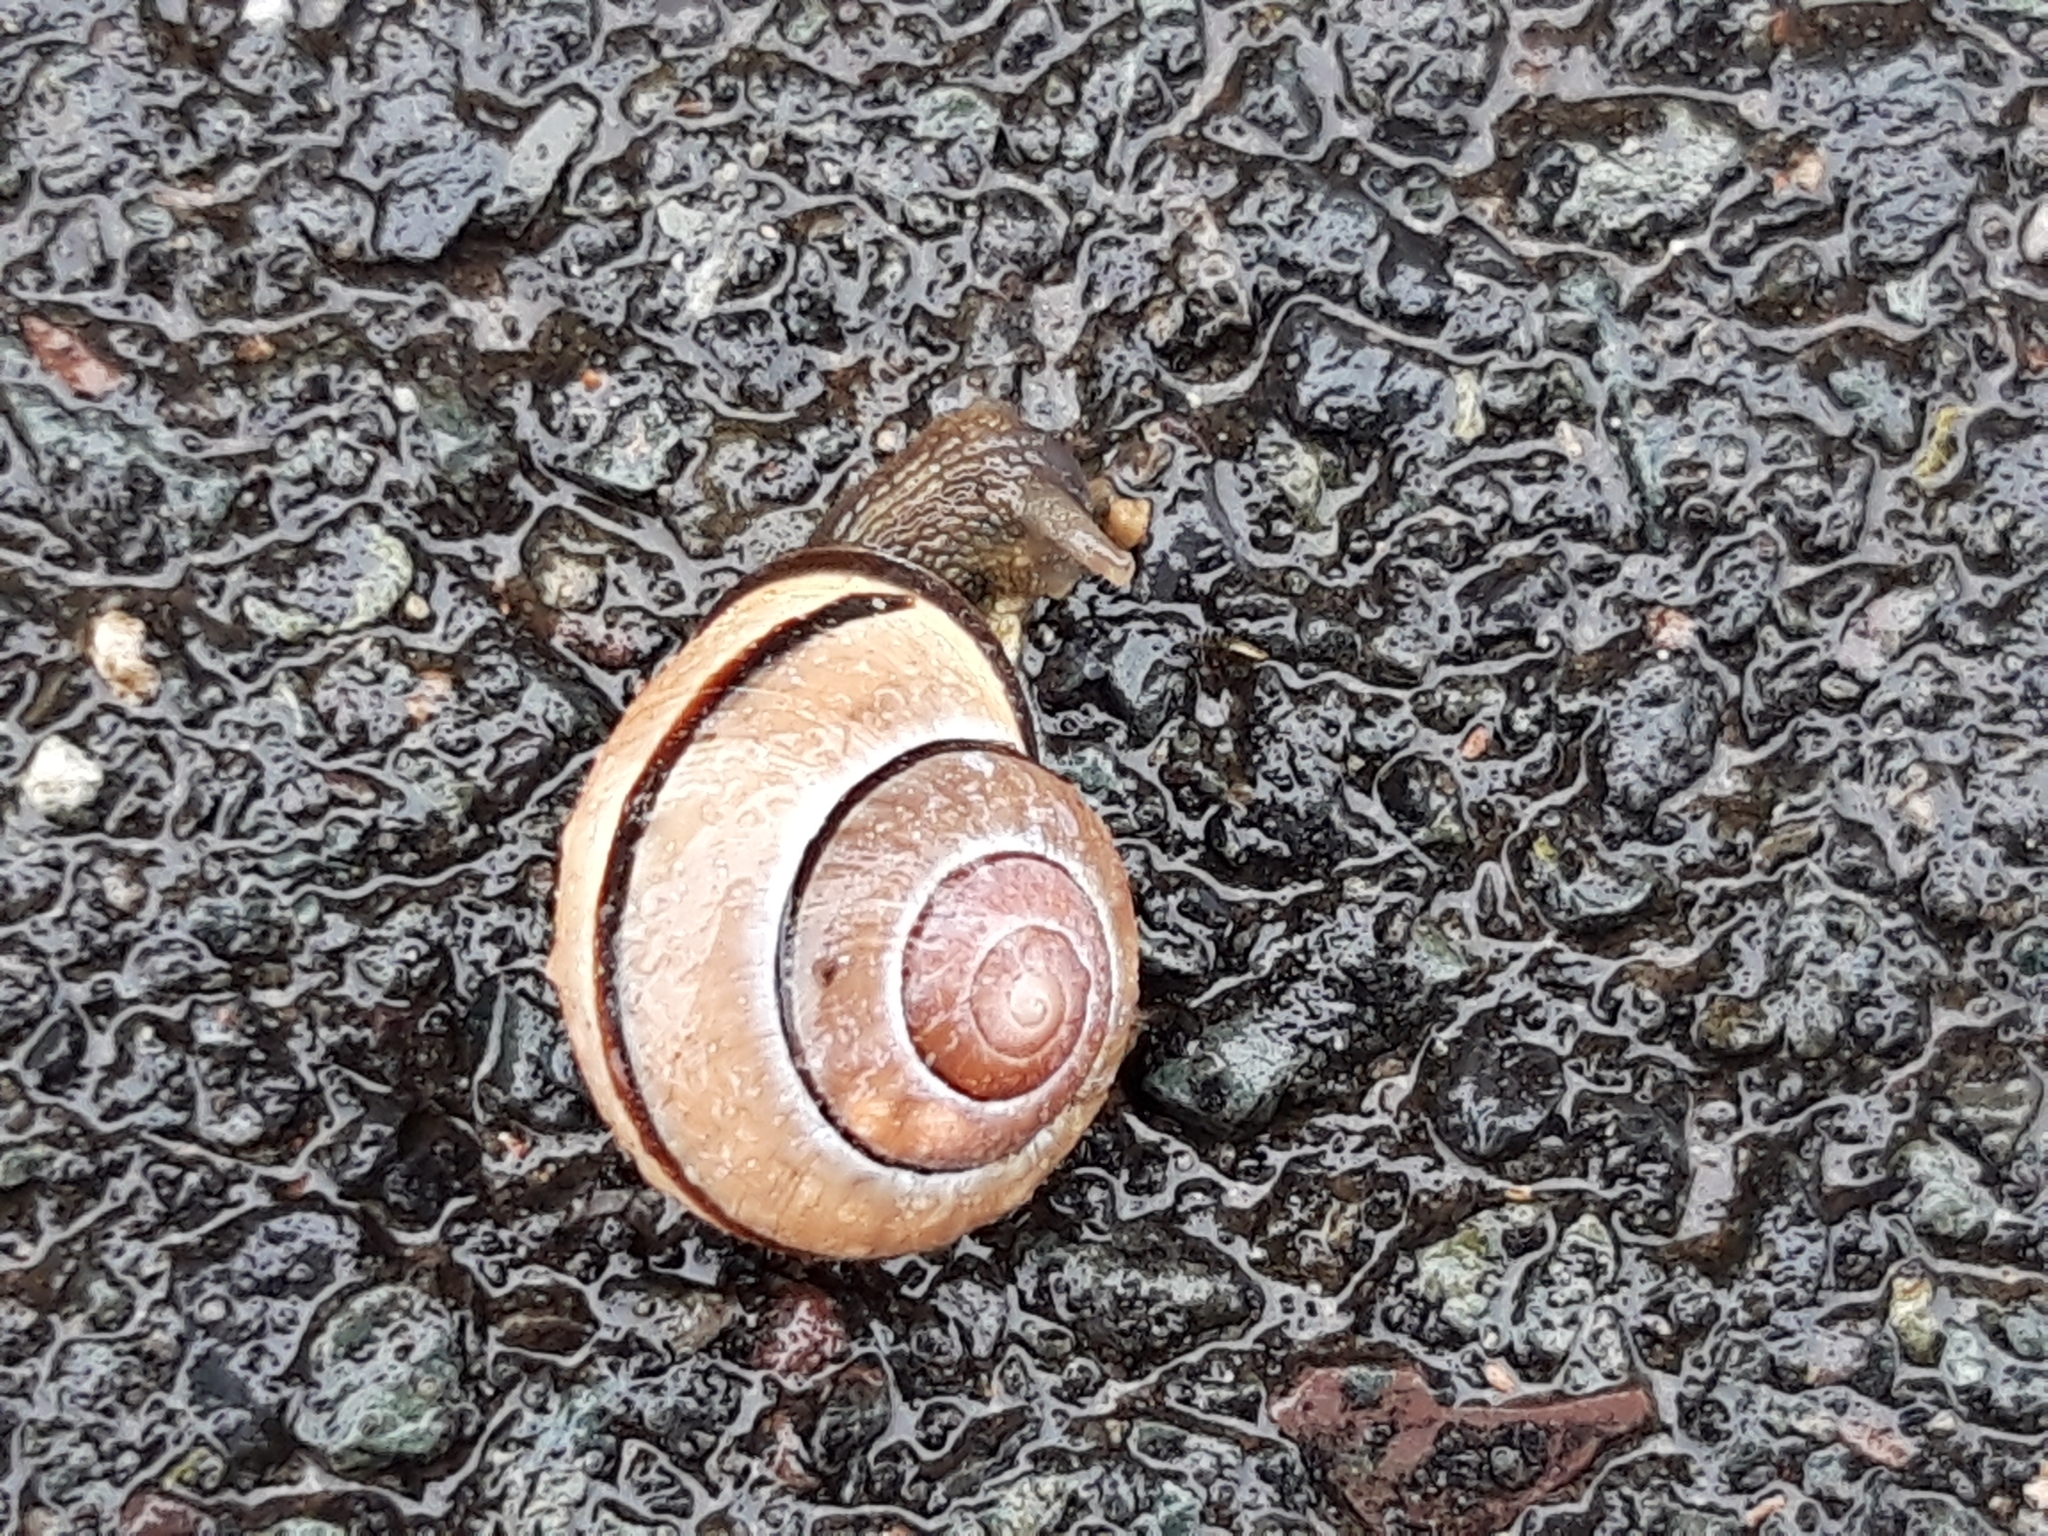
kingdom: Animalia
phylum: Mollusca
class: Gastropoda
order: Stylommatophora
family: Helicidae
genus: Cepaea
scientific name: Cepaea nemoralis
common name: Grovesnail
